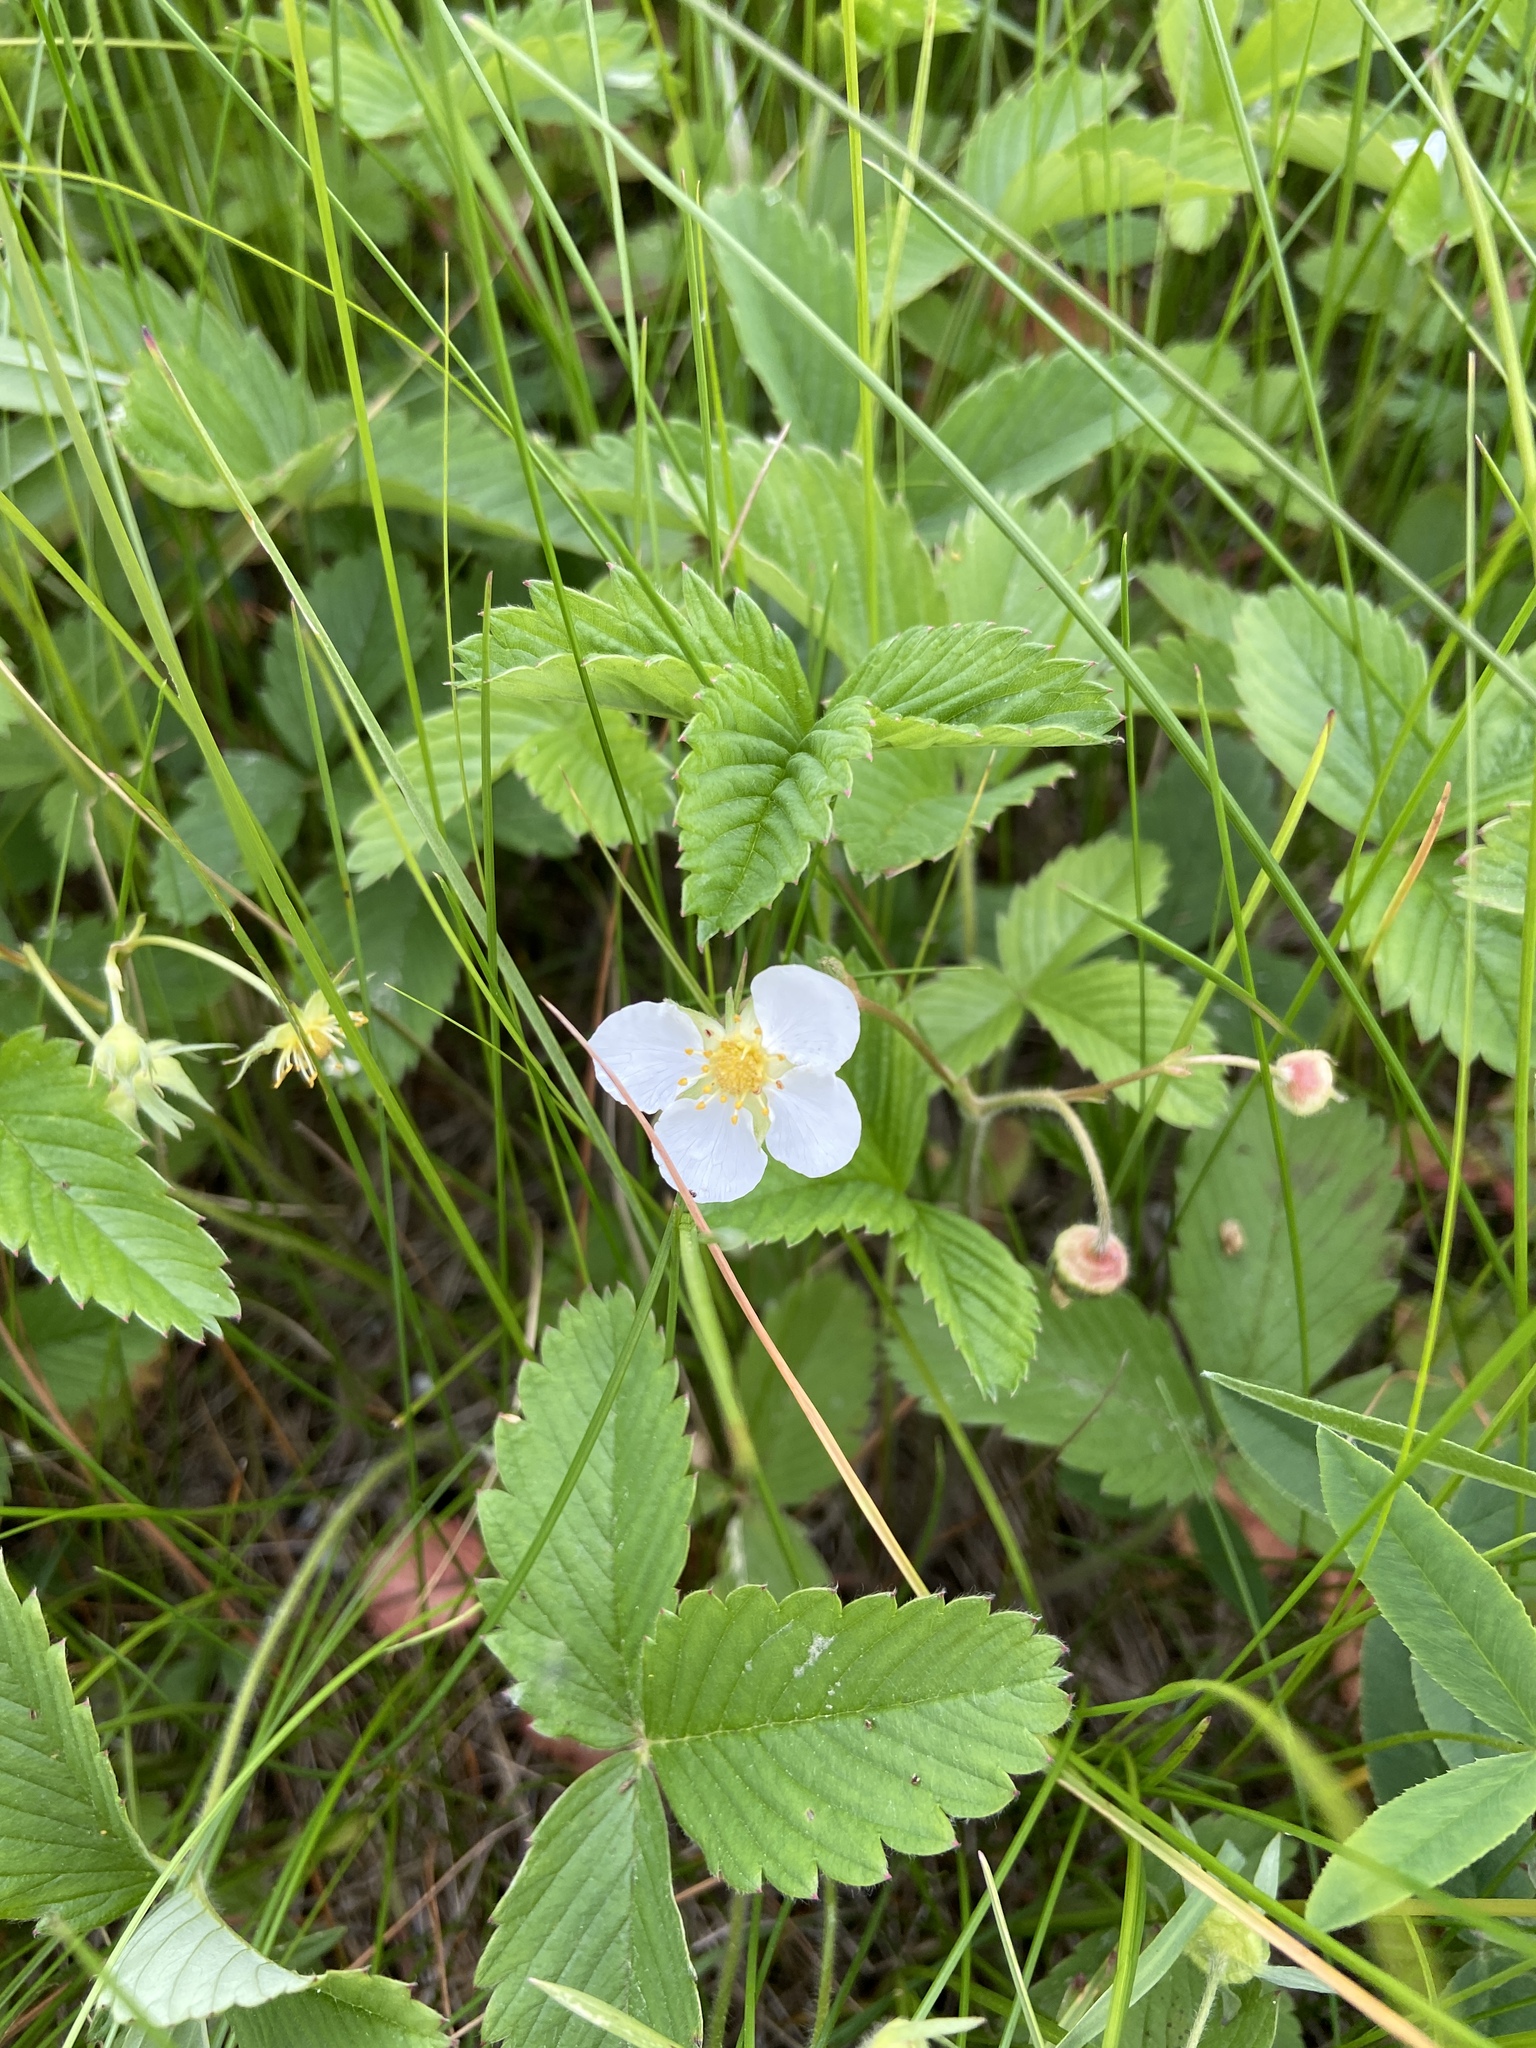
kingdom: Plantae
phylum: Tracheophyta
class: Magnoliopsida
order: Rosales
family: Rosaceae
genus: Fragaria
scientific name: Fragaria viridis
